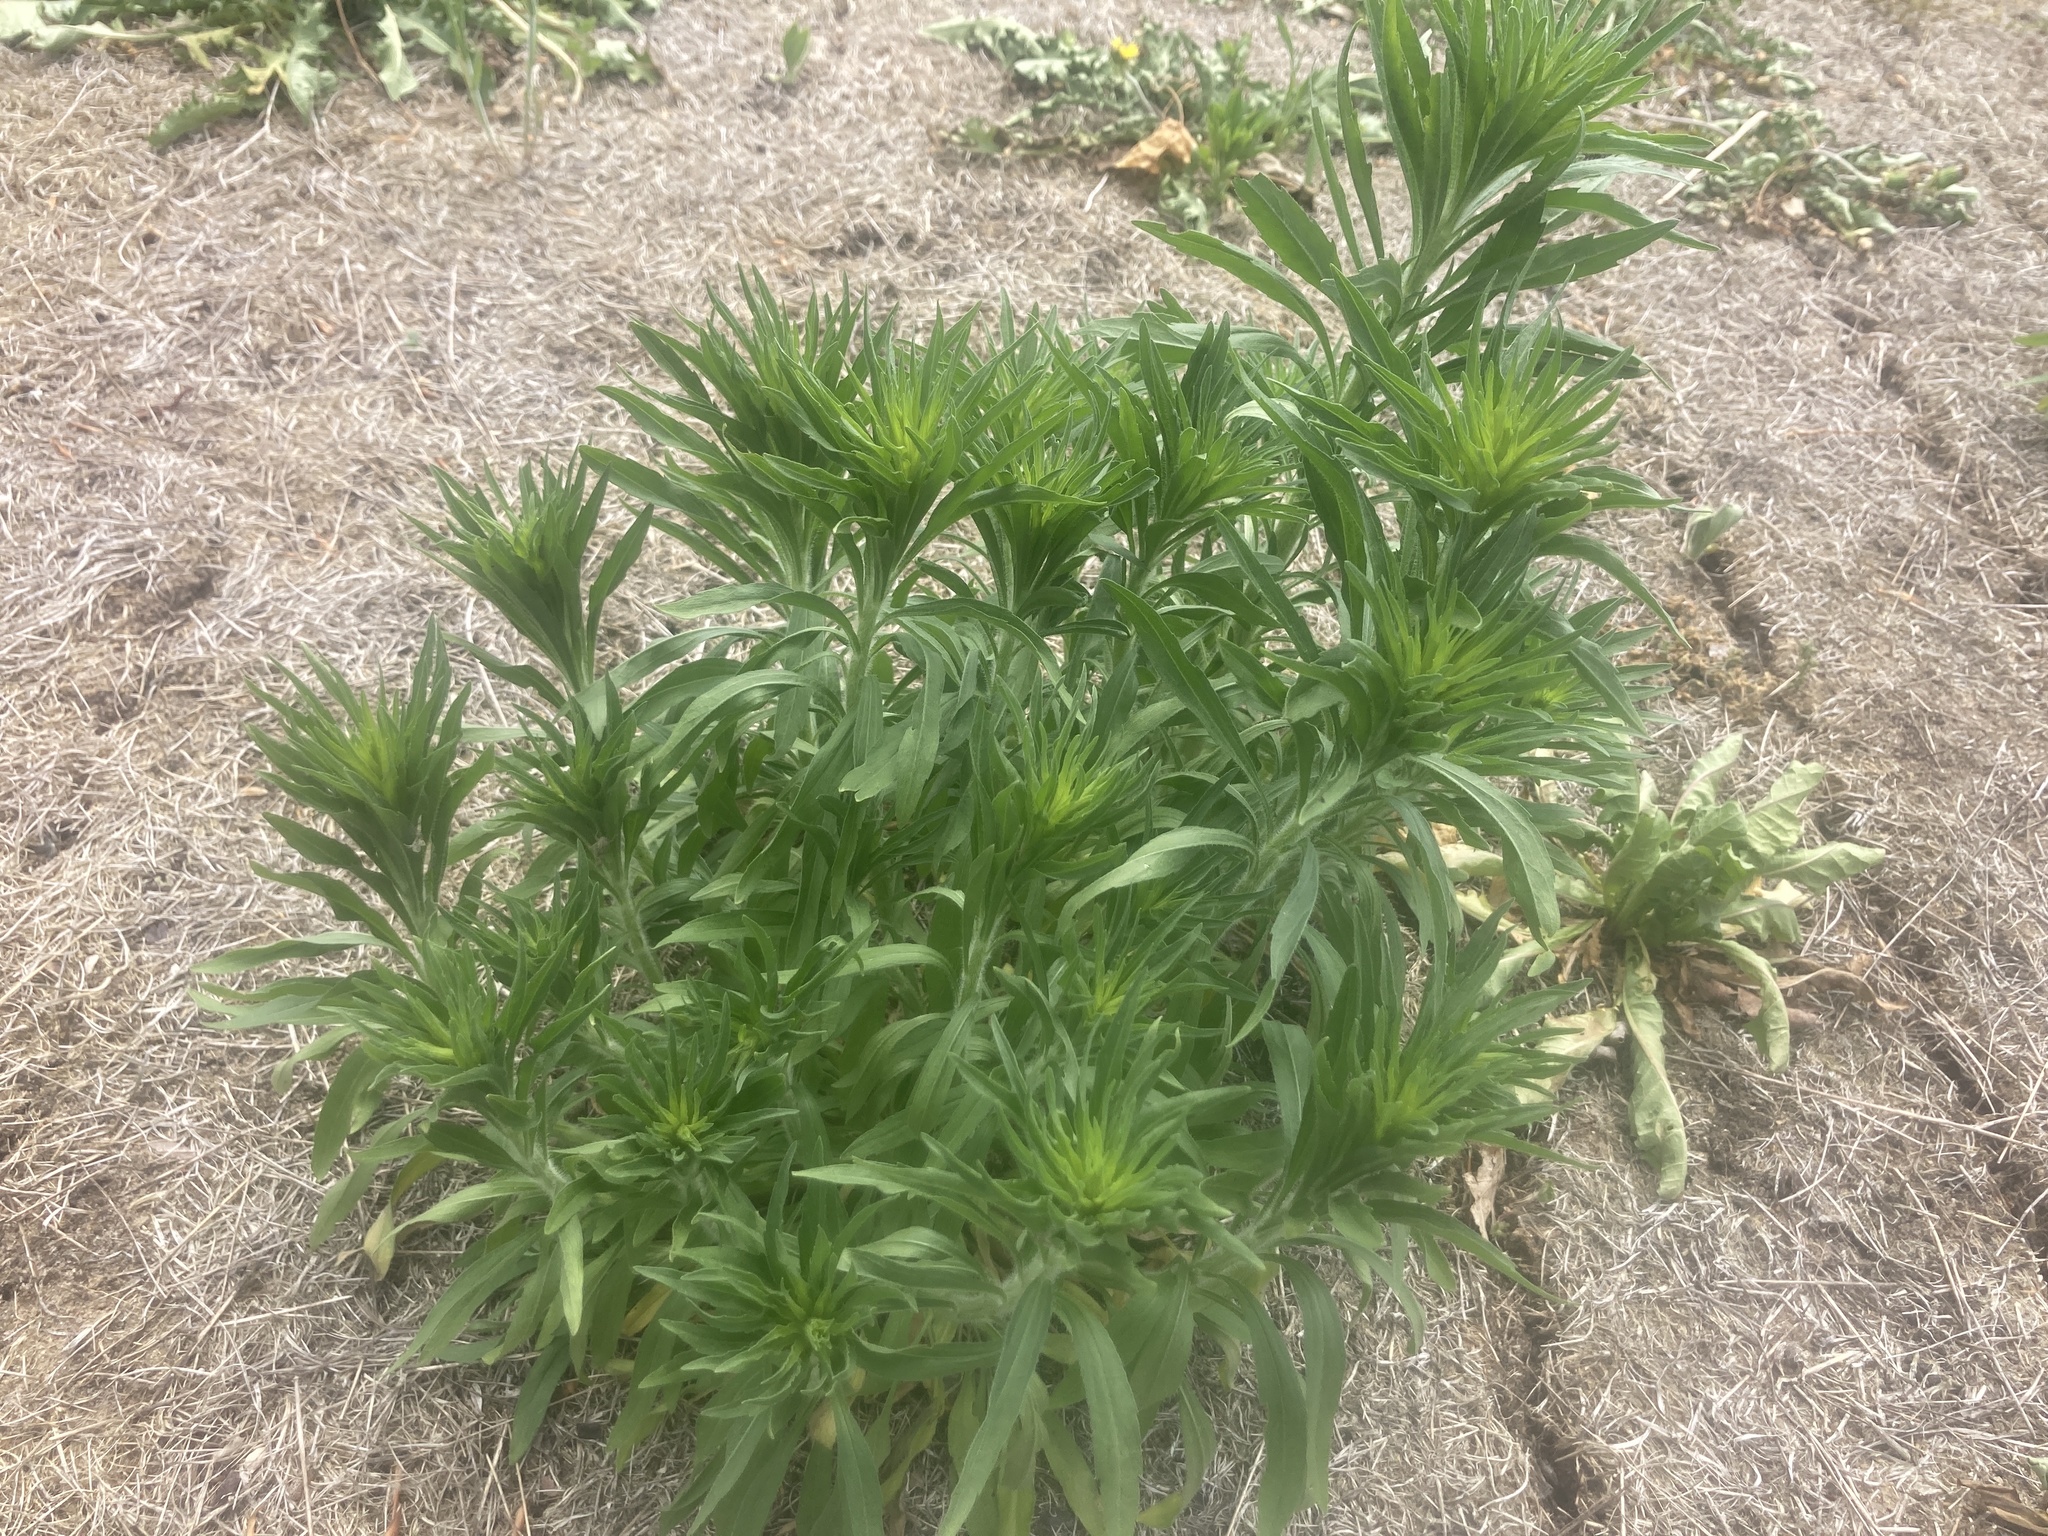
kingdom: Plantae
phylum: Tracheophyta
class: Magnoliopsida
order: Asterales
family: Asteraceae
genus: Erigeron
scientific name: Erigeron canadensis
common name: Canadian fleabane
